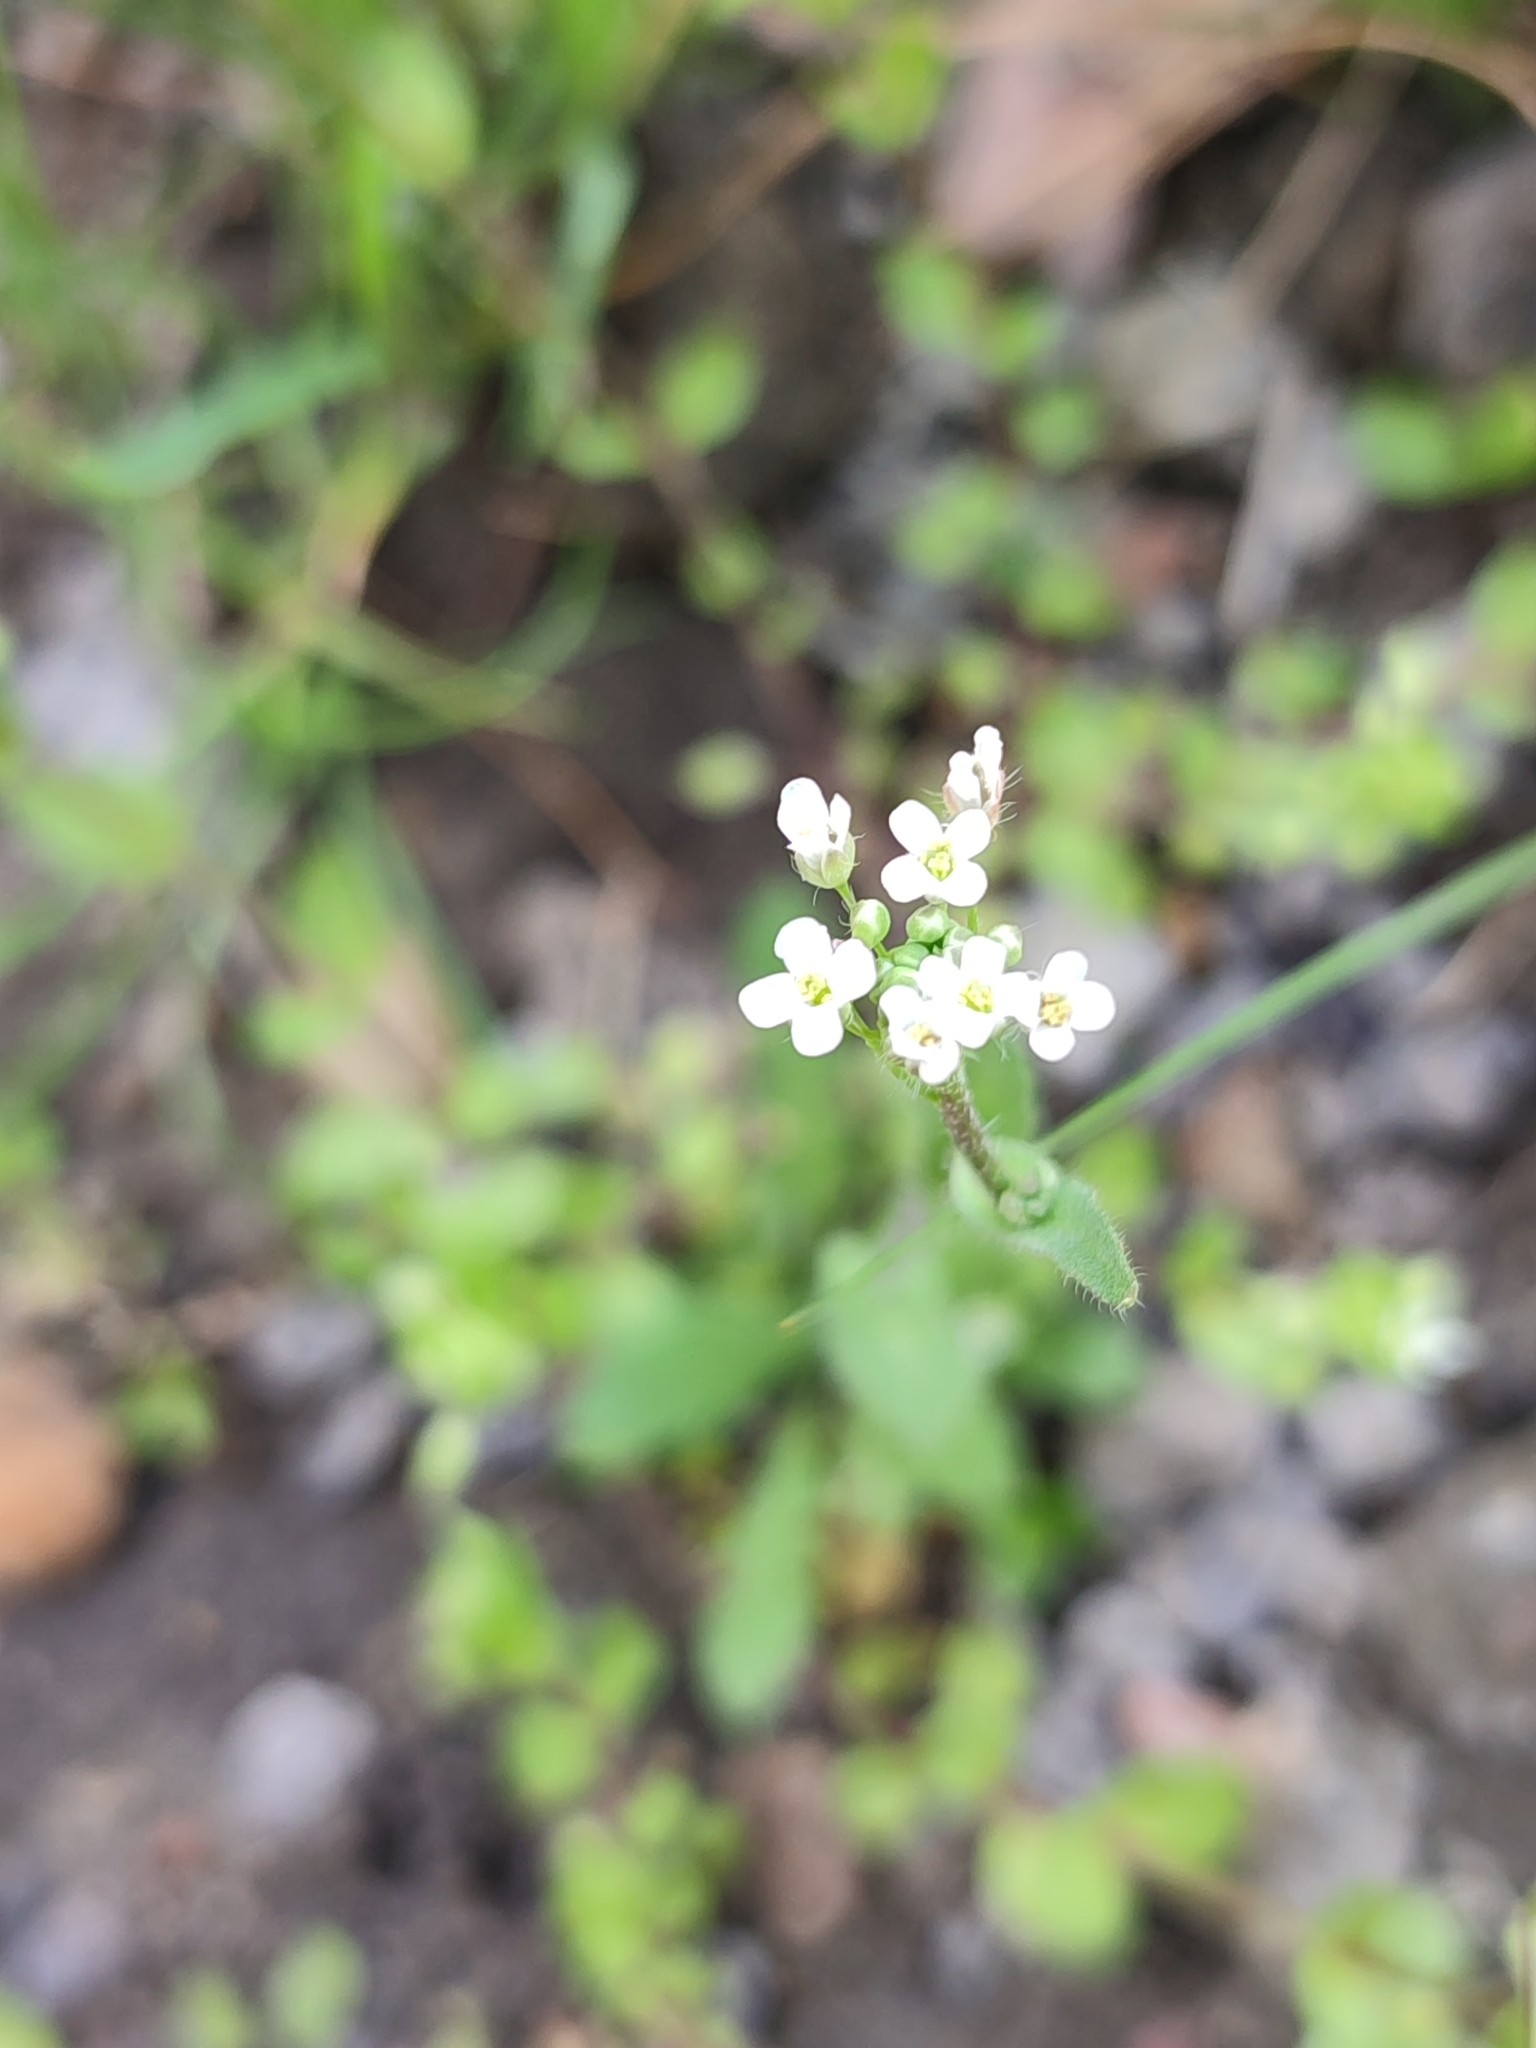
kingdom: Plantae
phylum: Tracheophyta
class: Magnoliopsida
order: Brassicales
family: Brassicaceae
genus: Capsella
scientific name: Capsella bursa-pastoris
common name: Shepherd's purse
